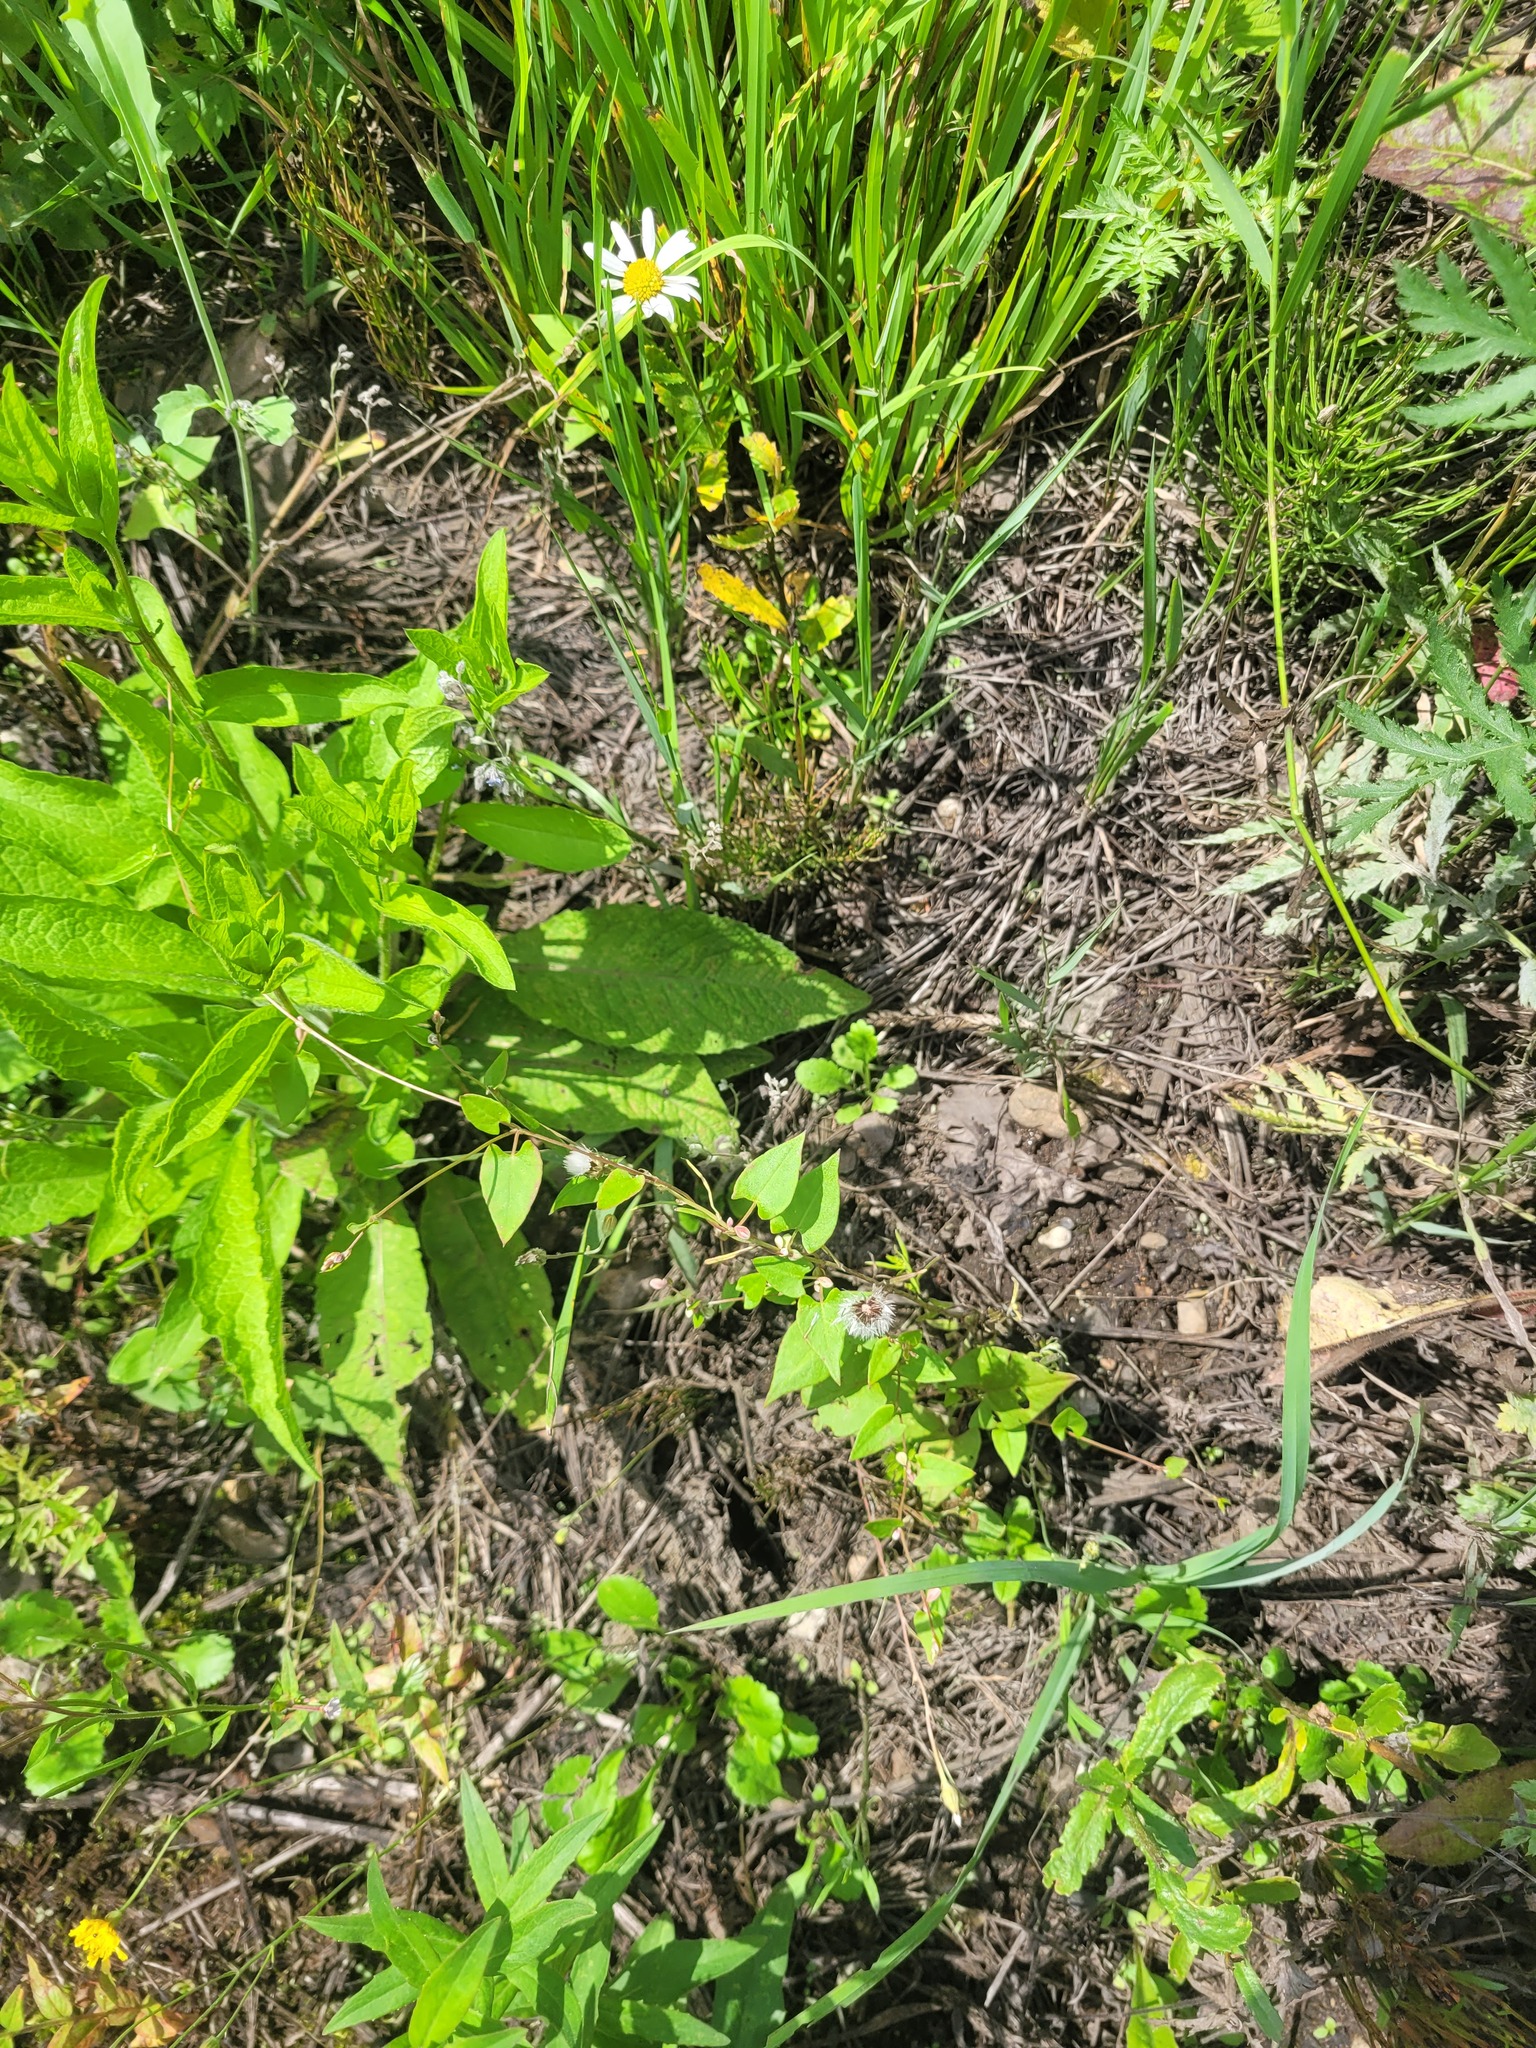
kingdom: Plantae
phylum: Tracheophyta
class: Magnoliopsida
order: Caryophyllales
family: Polygonaceae
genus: Fallopia
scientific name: Fallopia convolvulus
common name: Black bindweed
